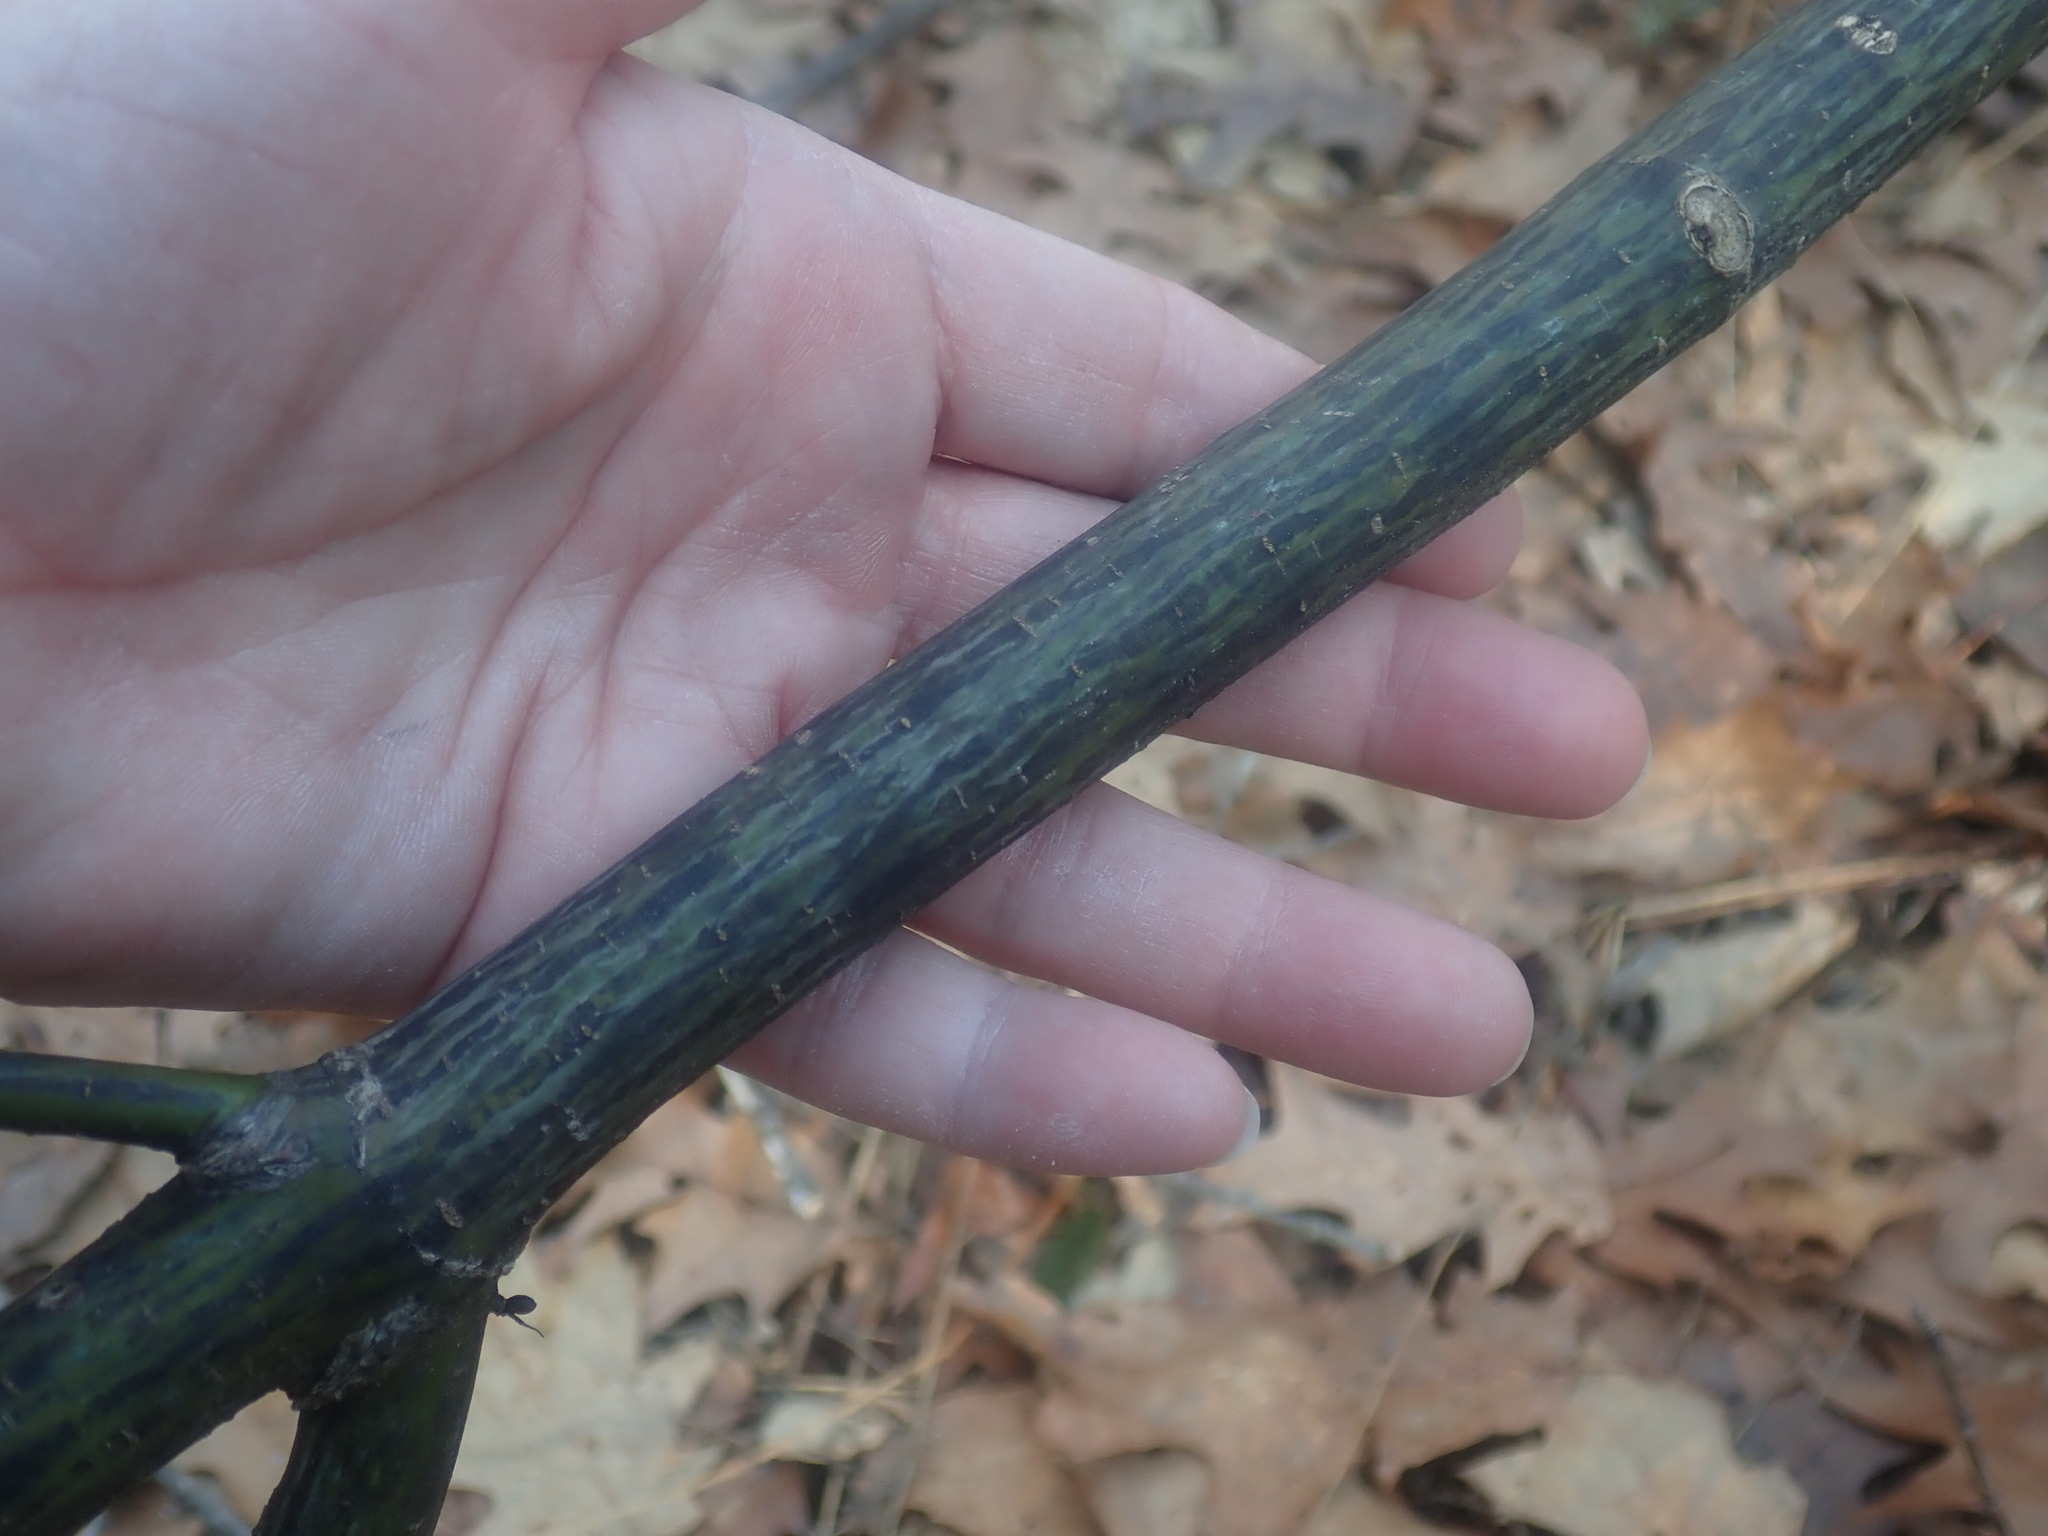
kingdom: Plantae
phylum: Tracheophyta
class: Magnoliopsida
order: Sapindales
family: Sapindaceae
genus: Acer
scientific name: Acer pensylvanicum
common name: Moosewood
